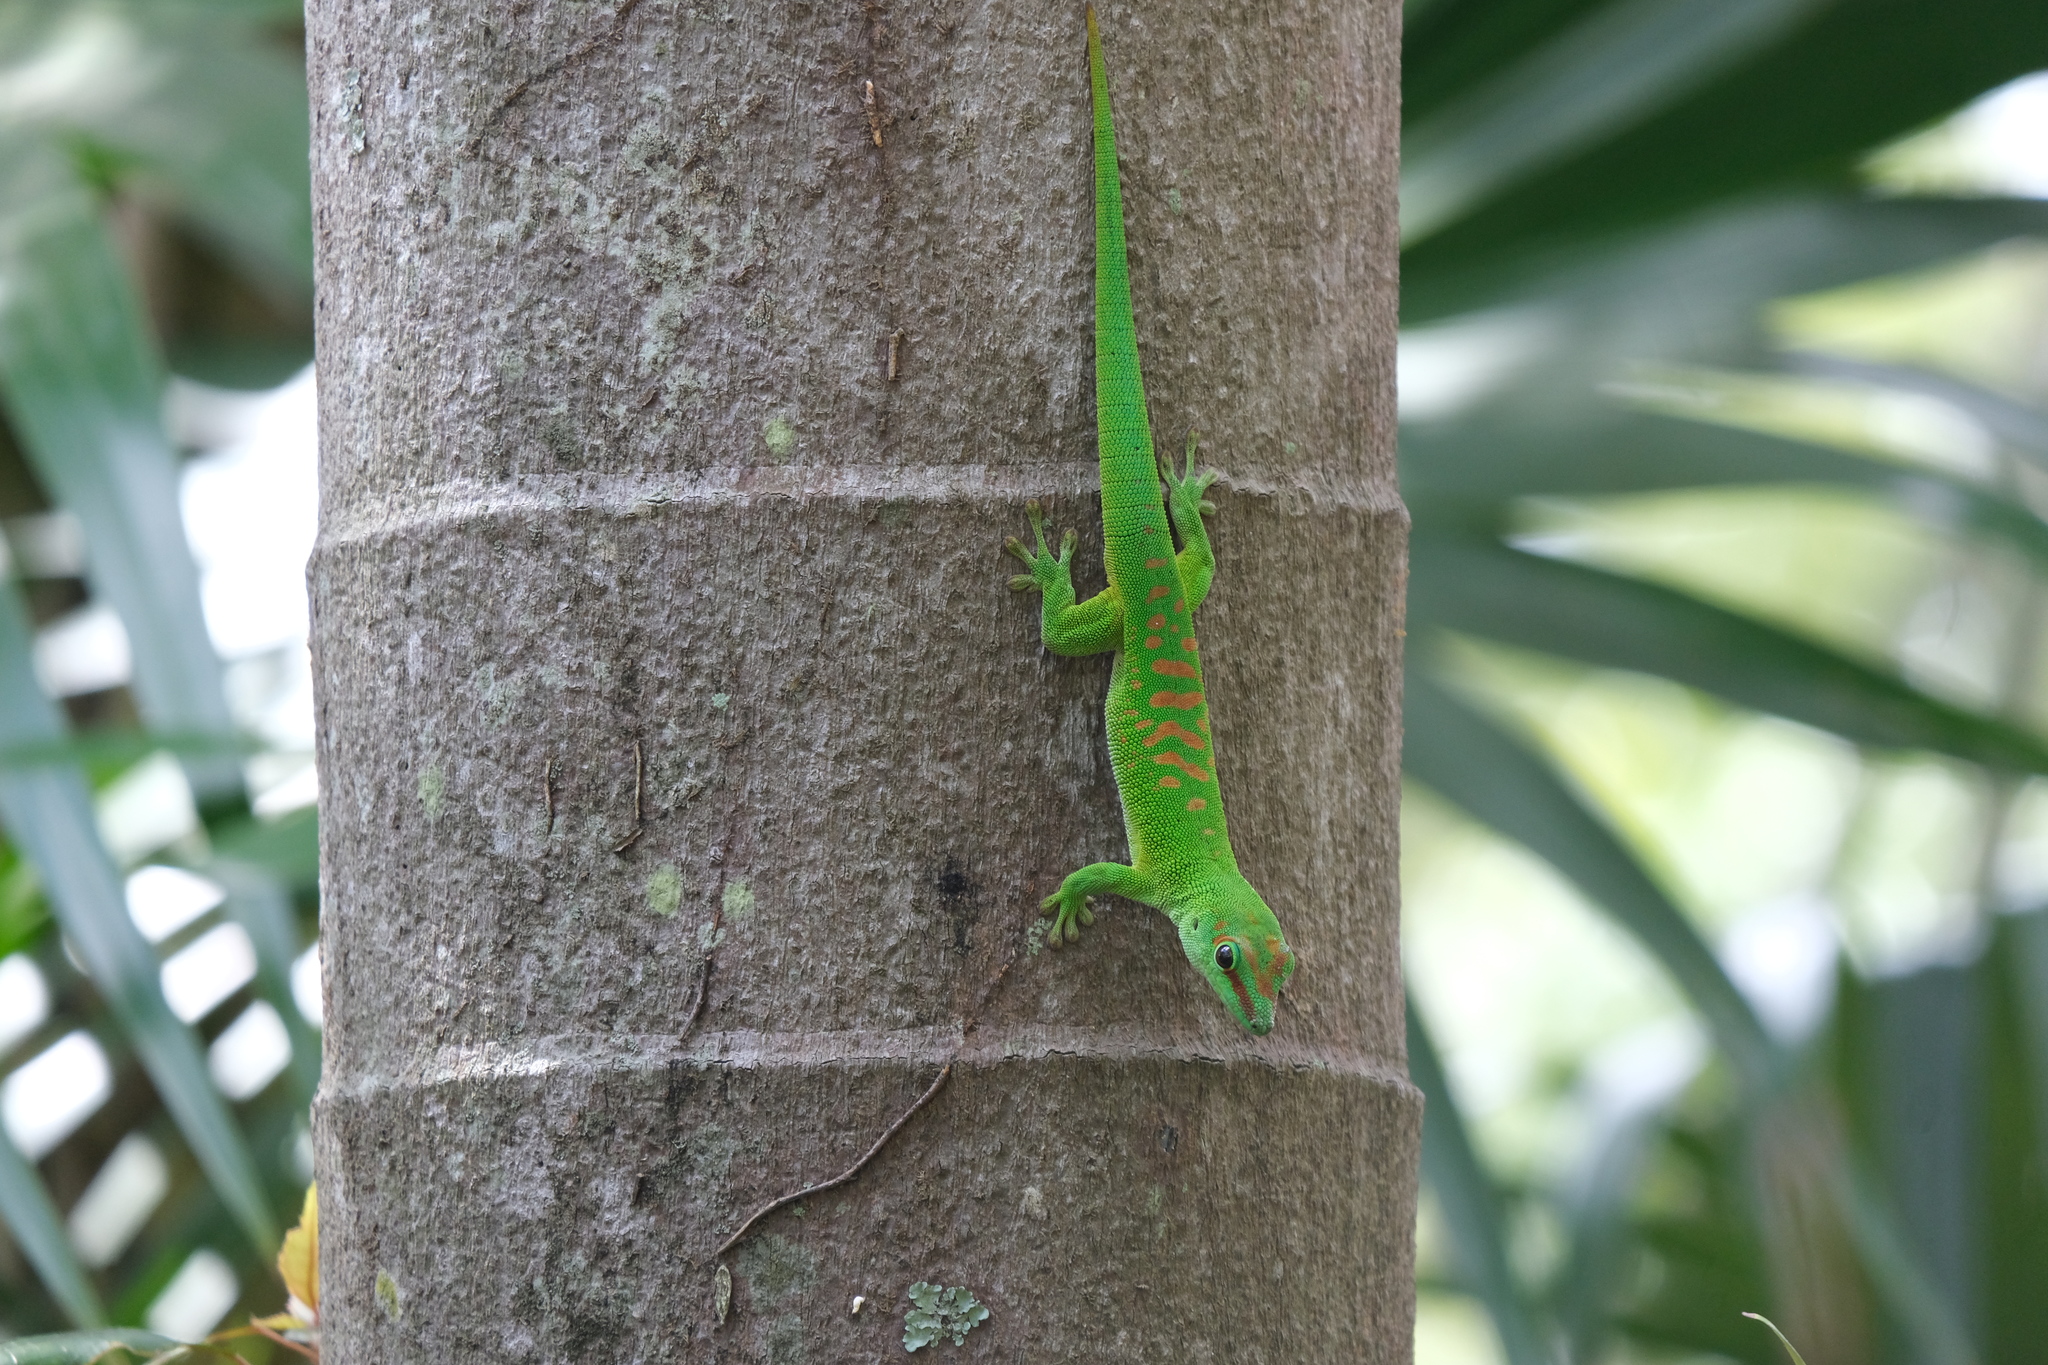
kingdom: Animalia
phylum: Chordata
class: Squamata
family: Gekkonidae
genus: Phelsuma
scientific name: Phelsuma grandis
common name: Madagascar giant day gecko
